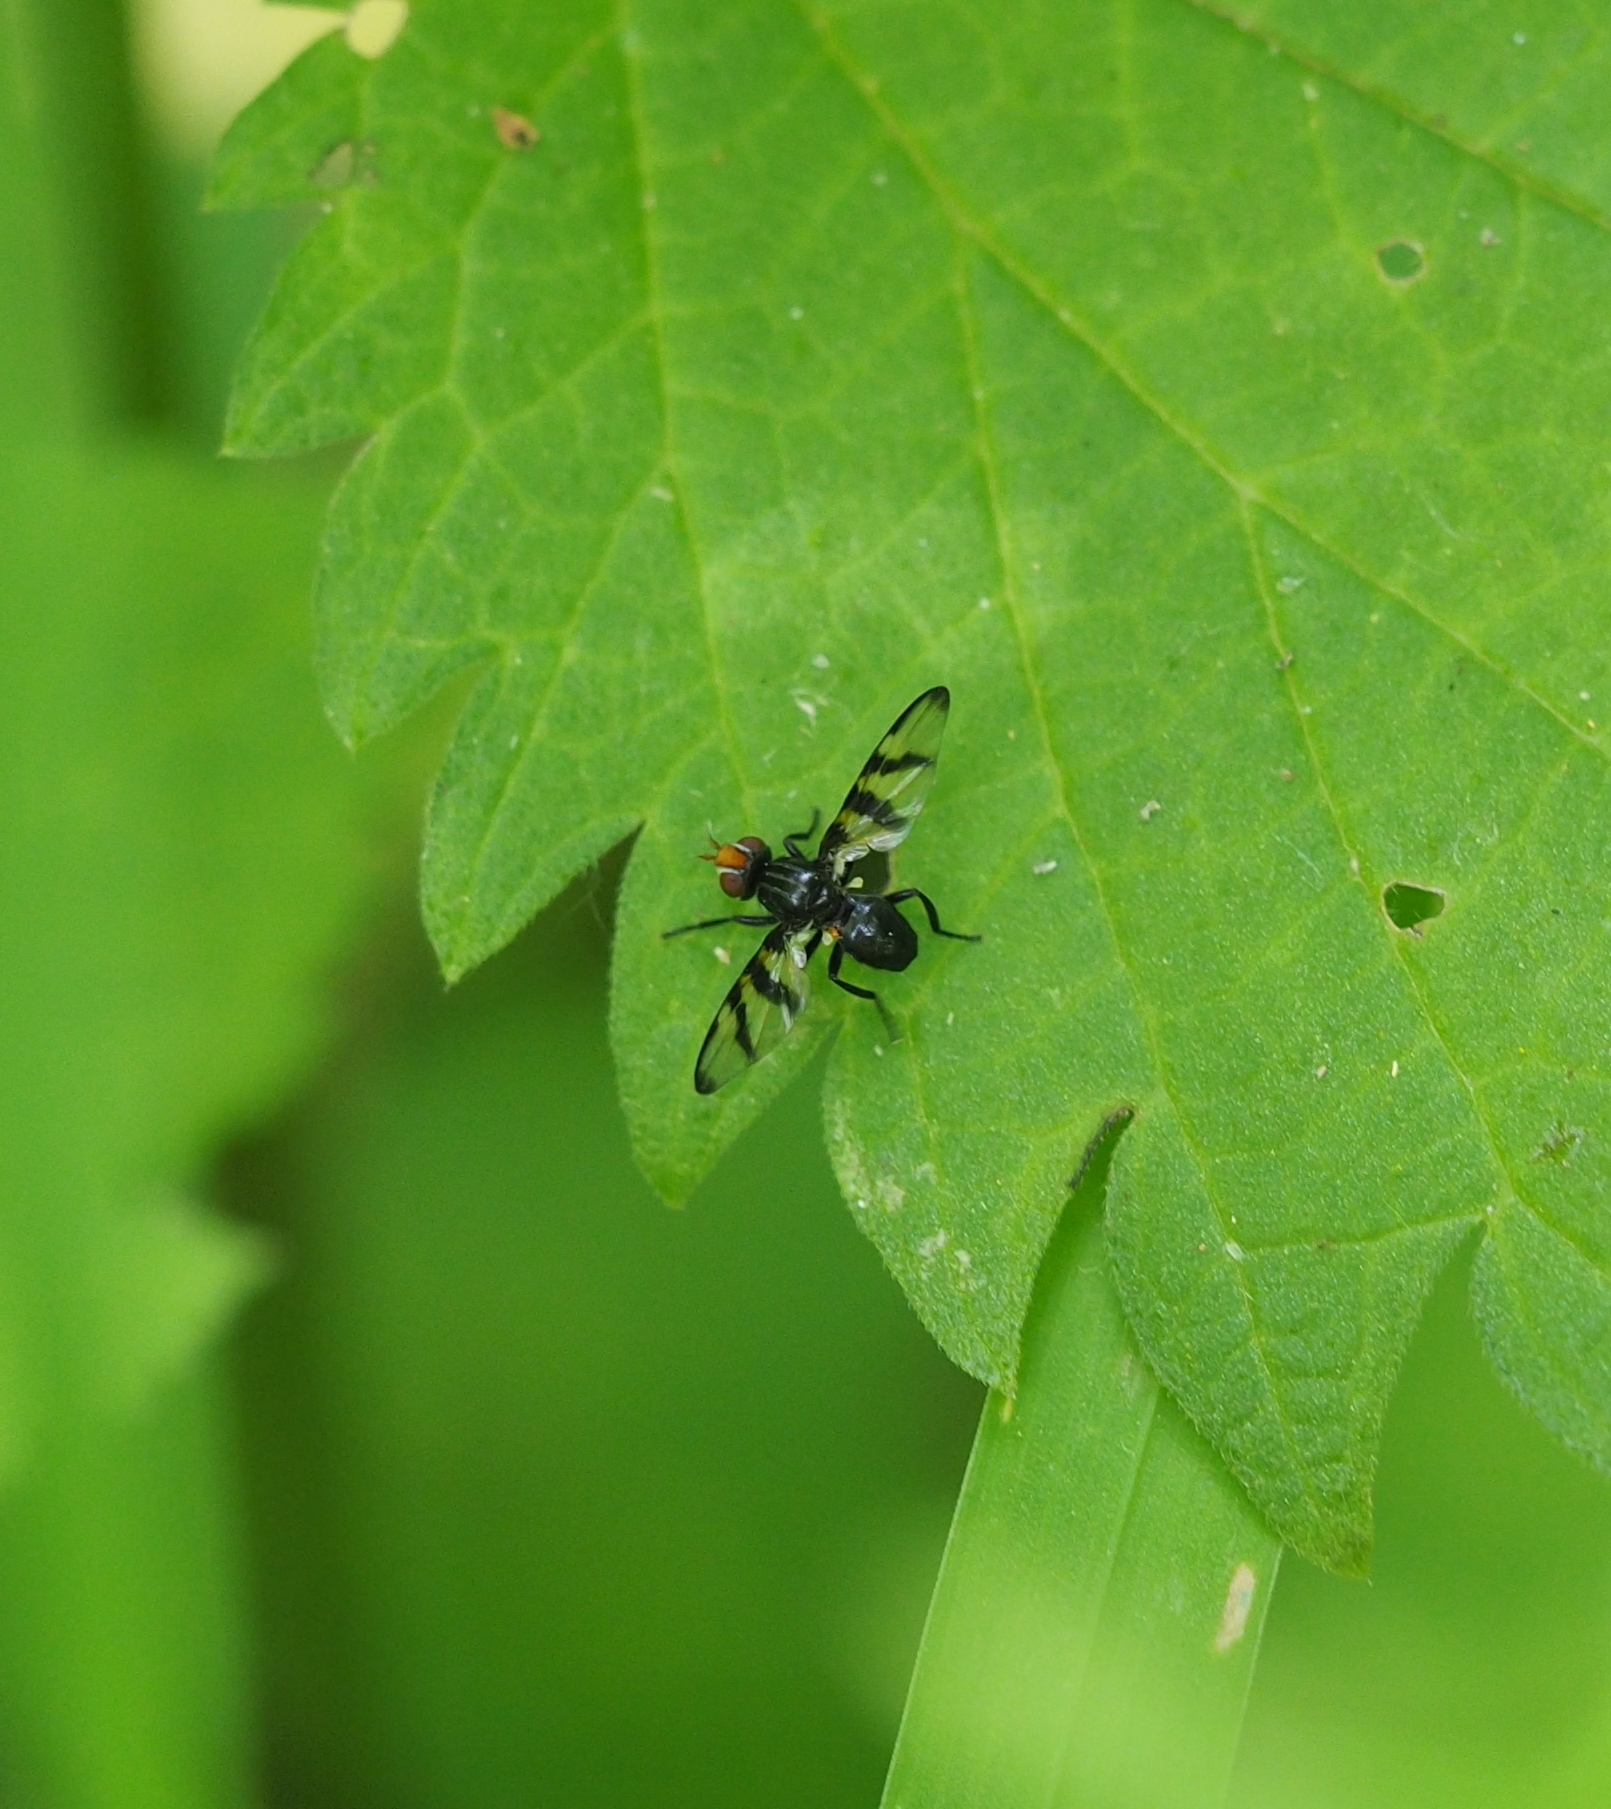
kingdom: Animalia
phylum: Arthropoda
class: Insecta
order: Diptera
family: Ulidiidae
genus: Systata
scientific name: Systata rivularis
